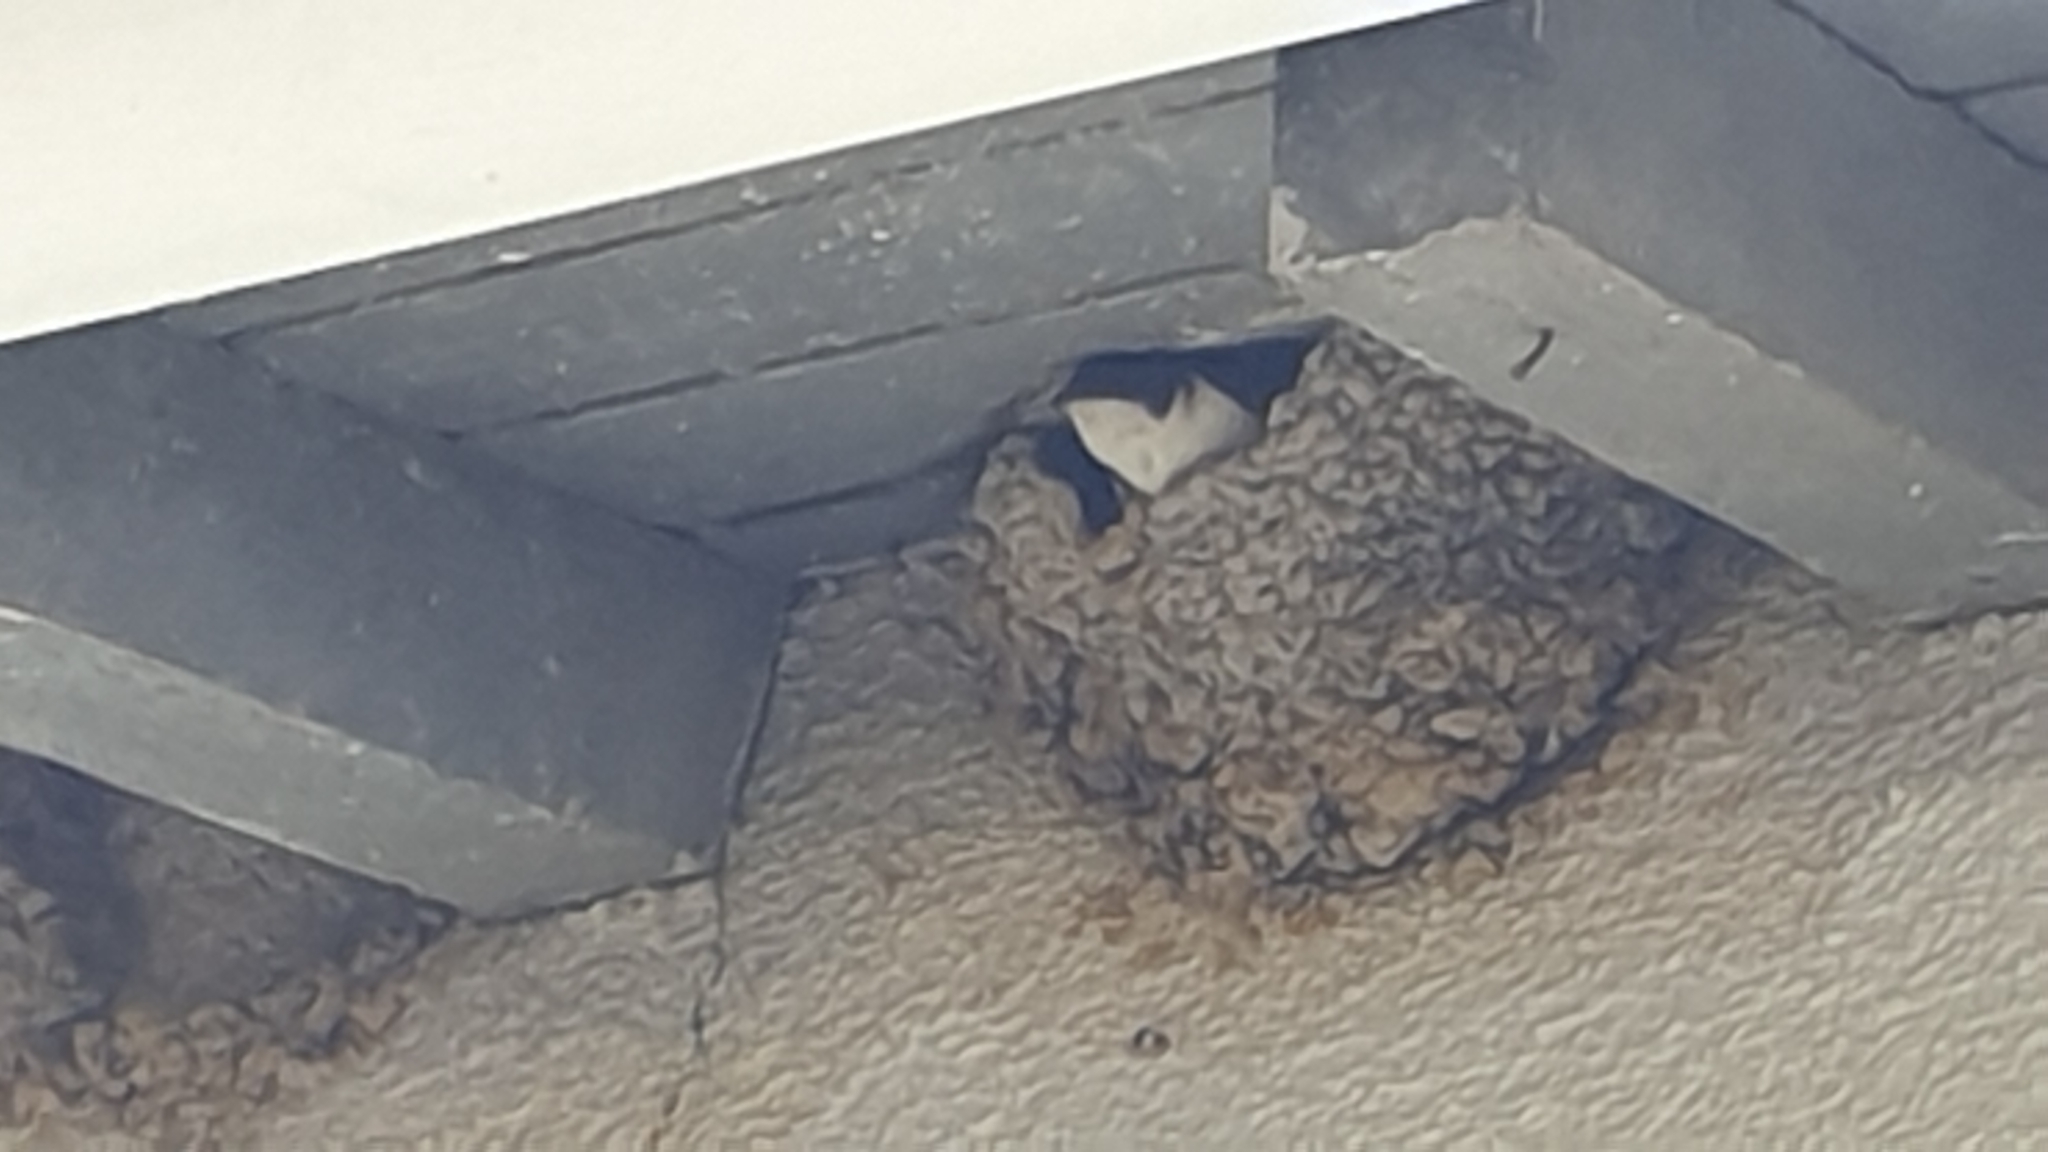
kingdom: Animalia
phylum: Chordata
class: Aves
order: Passeriformes
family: Hirundinidae
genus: Delichon
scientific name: Delichon urbicum
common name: Common house martin
